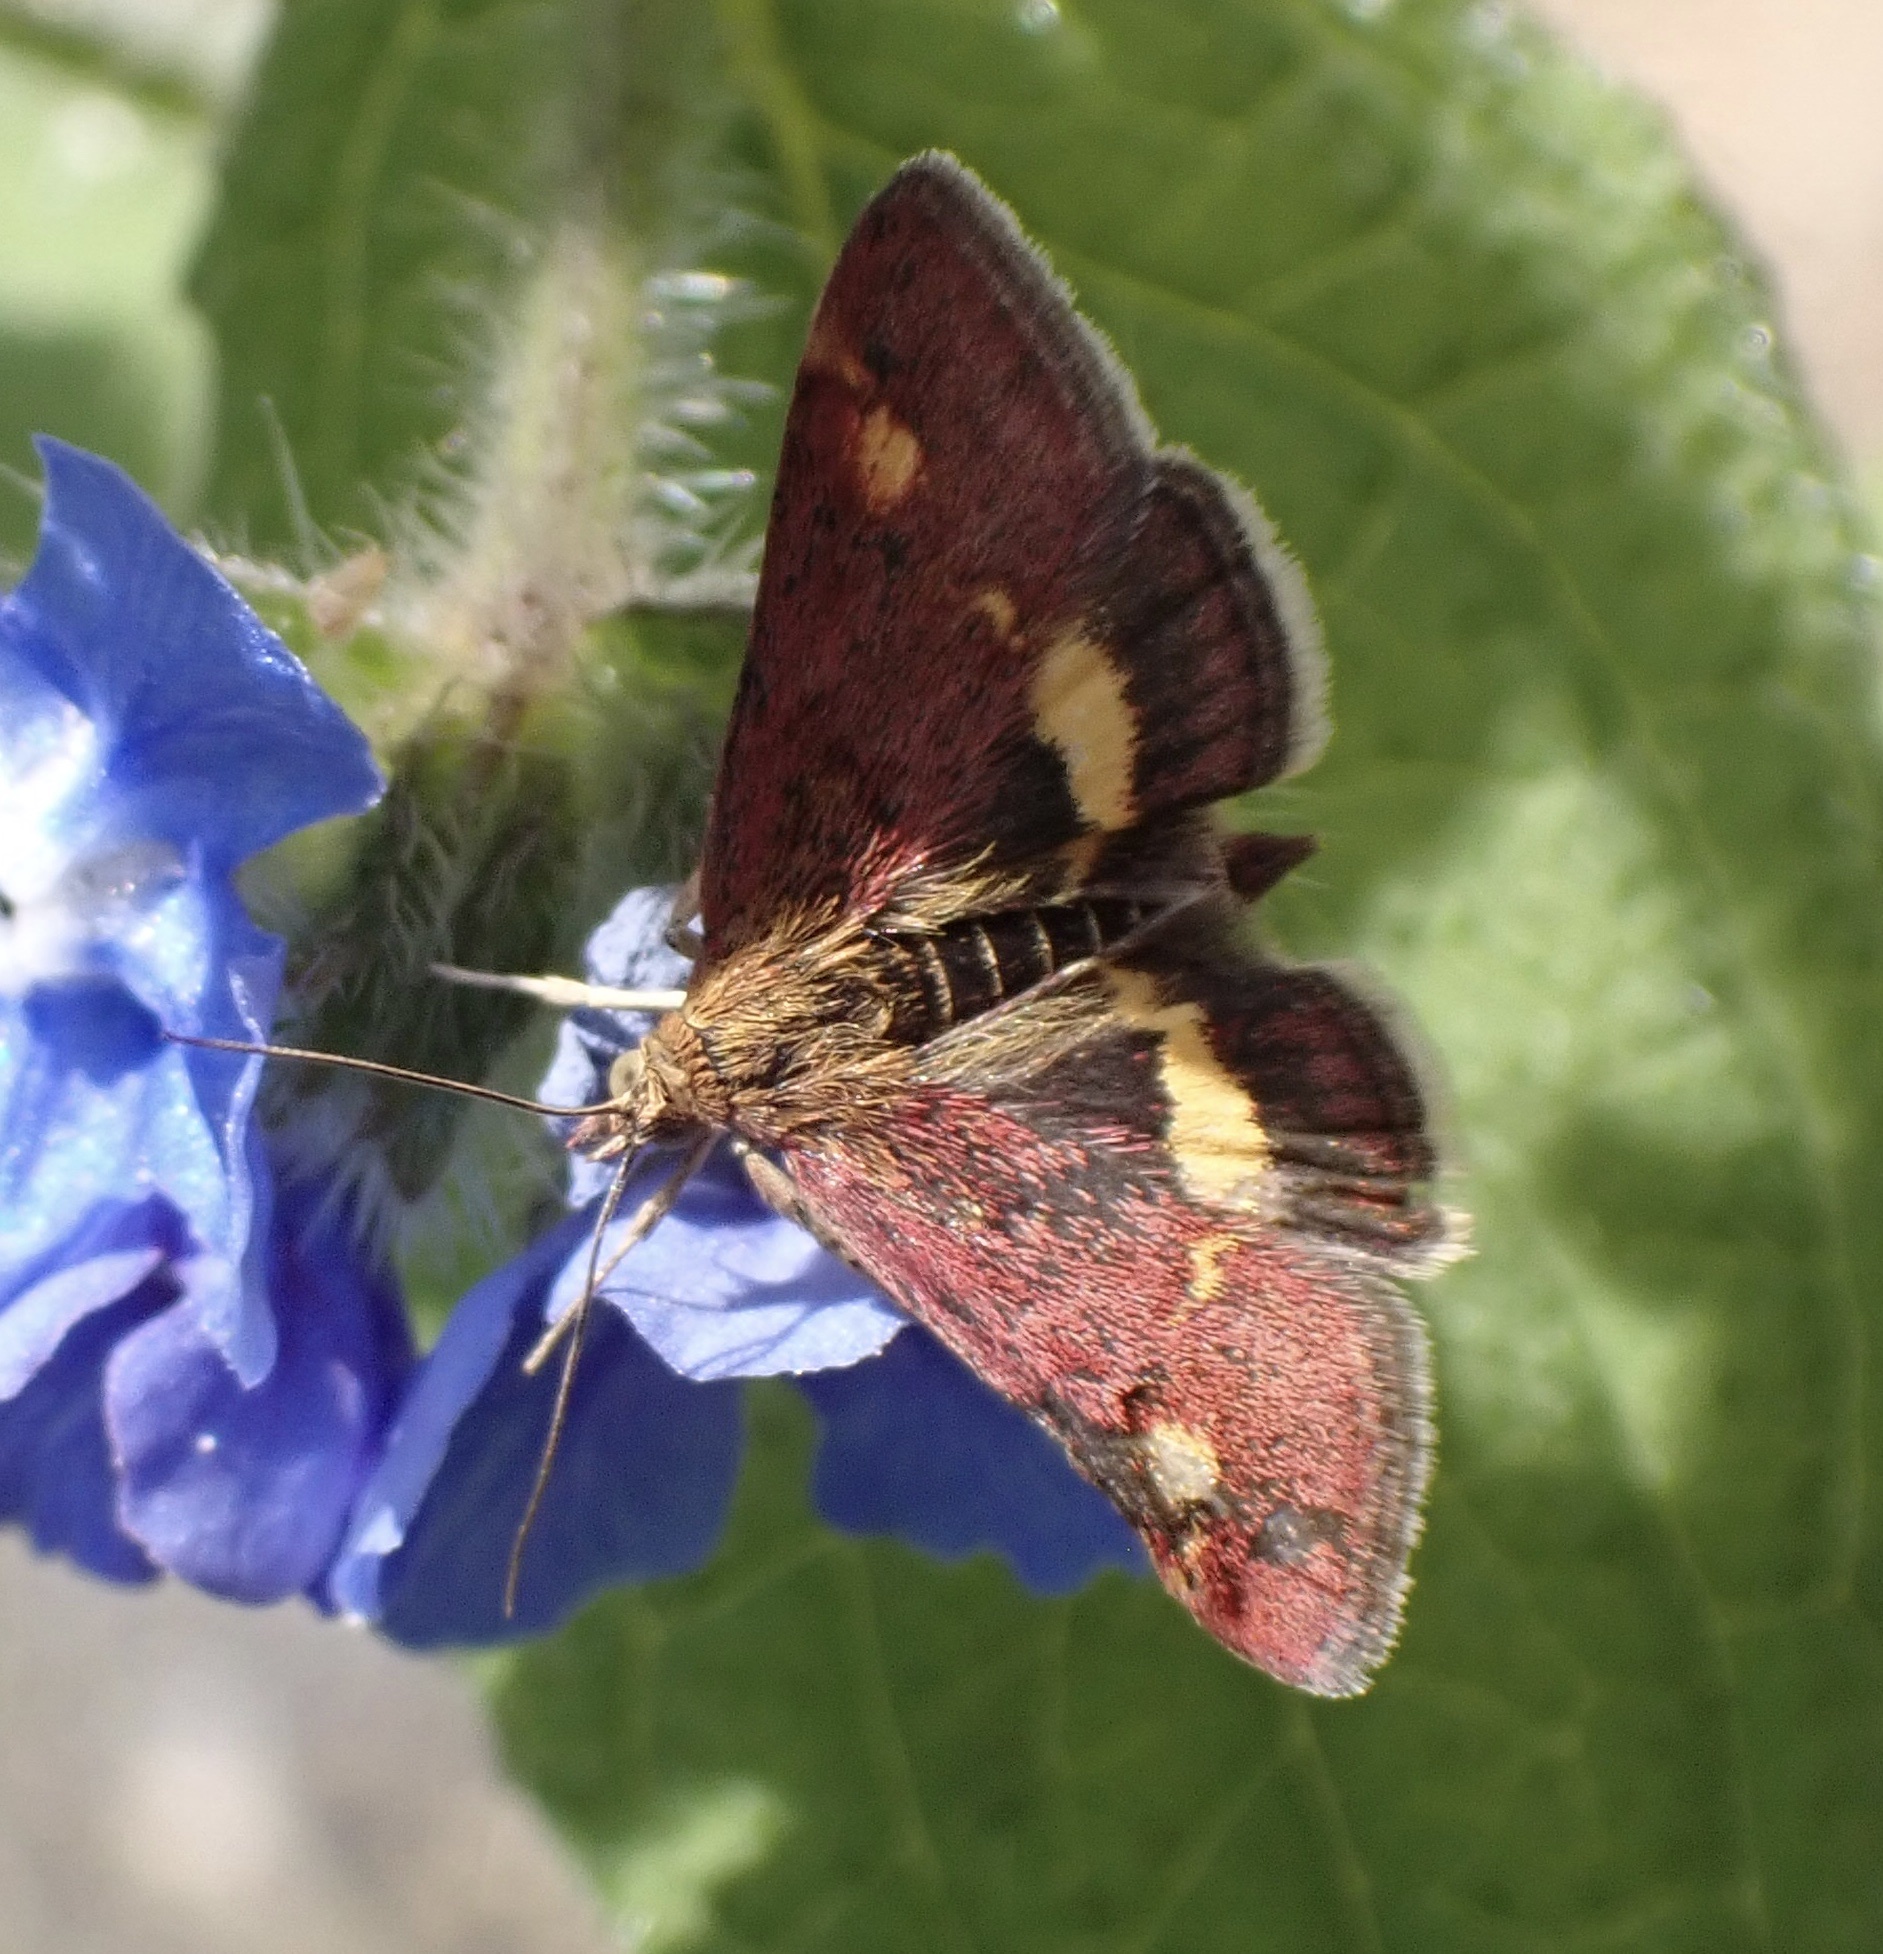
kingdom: Animalia
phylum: Arthropoda
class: Insecta
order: Lepidoptera
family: Crambidae
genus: Pyrausta
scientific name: Pyrausta aurata
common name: Small purple & gold
